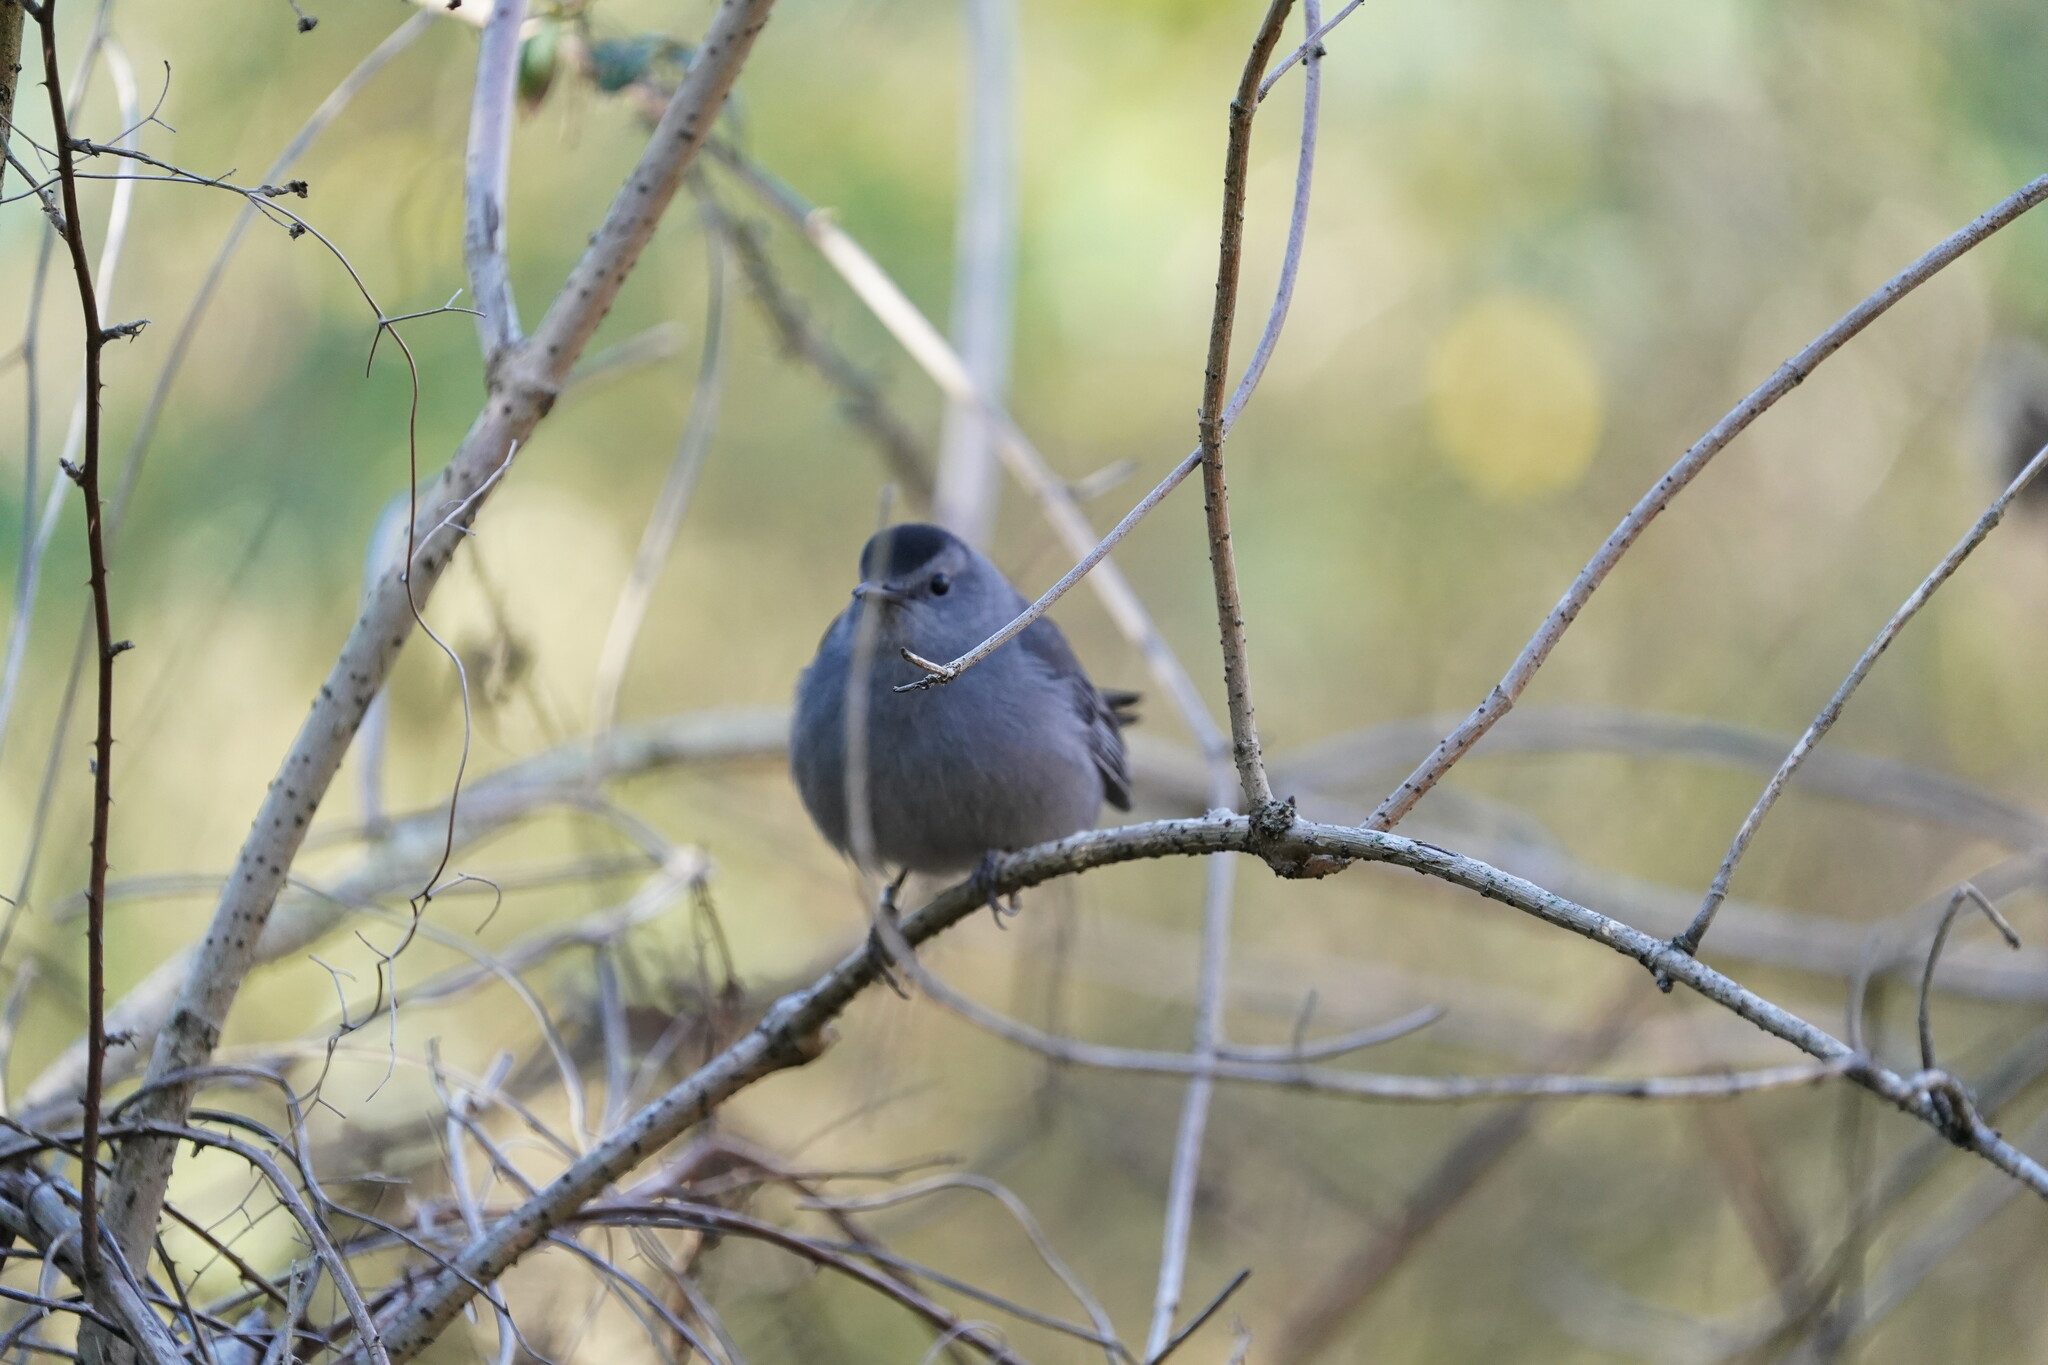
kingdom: Animalia
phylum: Chordata
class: Aves
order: Passeriformes
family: Mimidae
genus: Dumetella
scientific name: Dumetella carolinensis
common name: Gray catbird
